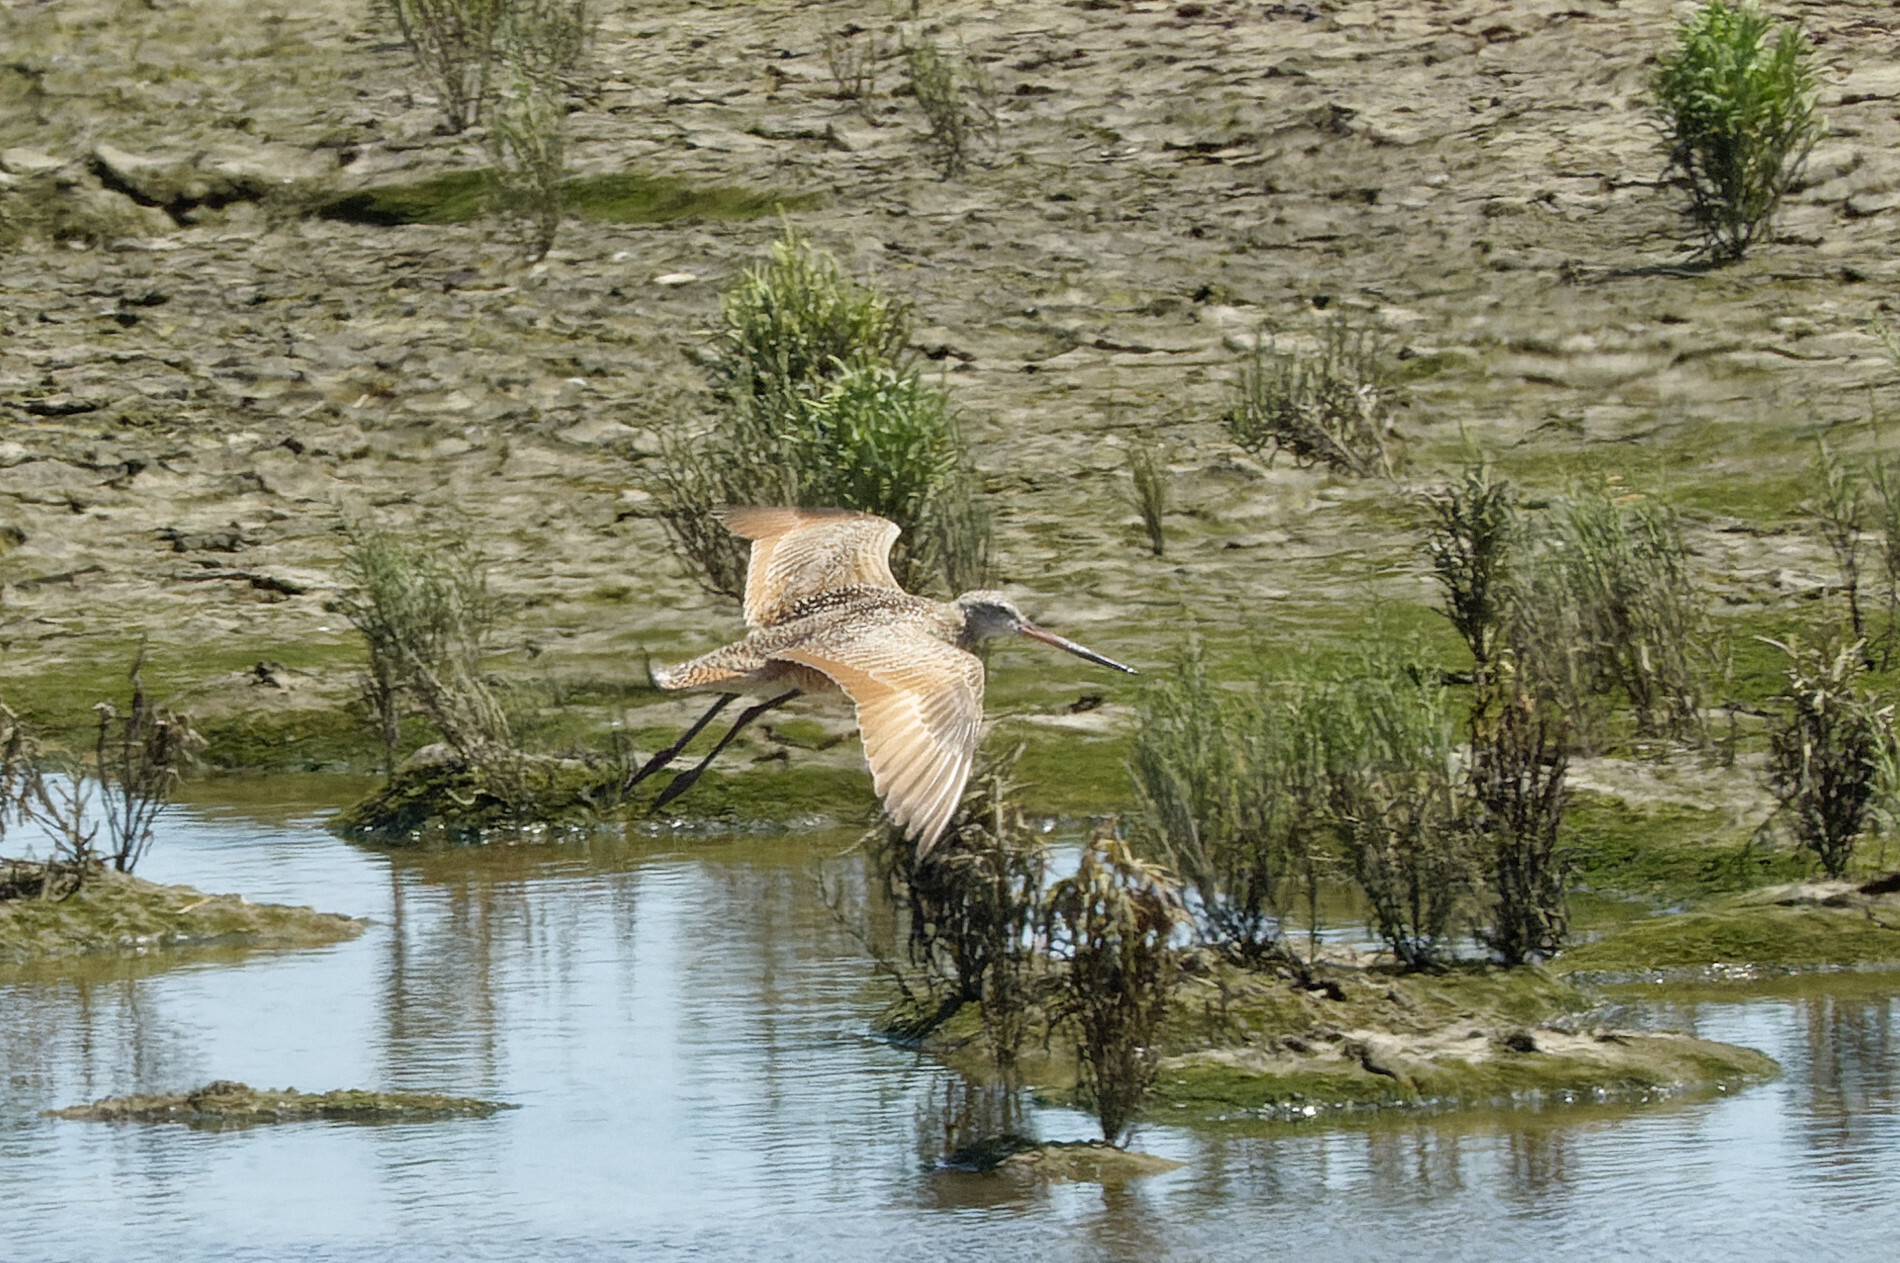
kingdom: Animalia
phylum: Chordata
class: Aves
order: Charadriiformes
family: Scolopacidae
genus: Limosa
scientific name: Limosa fedoa
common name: Marbled godwit
